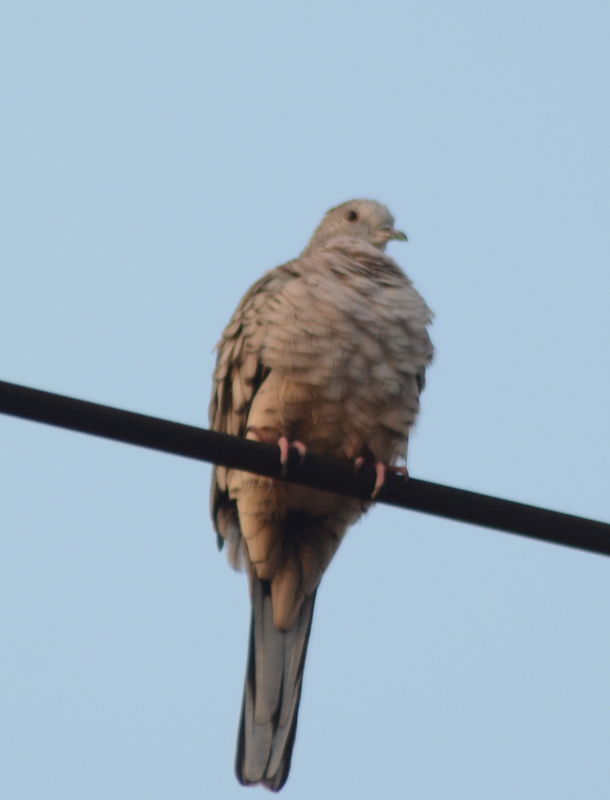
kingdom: Animalia
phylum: Chordata
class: Aves
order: Columbiformes
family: Columbidae
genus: Columbina
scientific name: Columbina inca
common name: Inca dove
